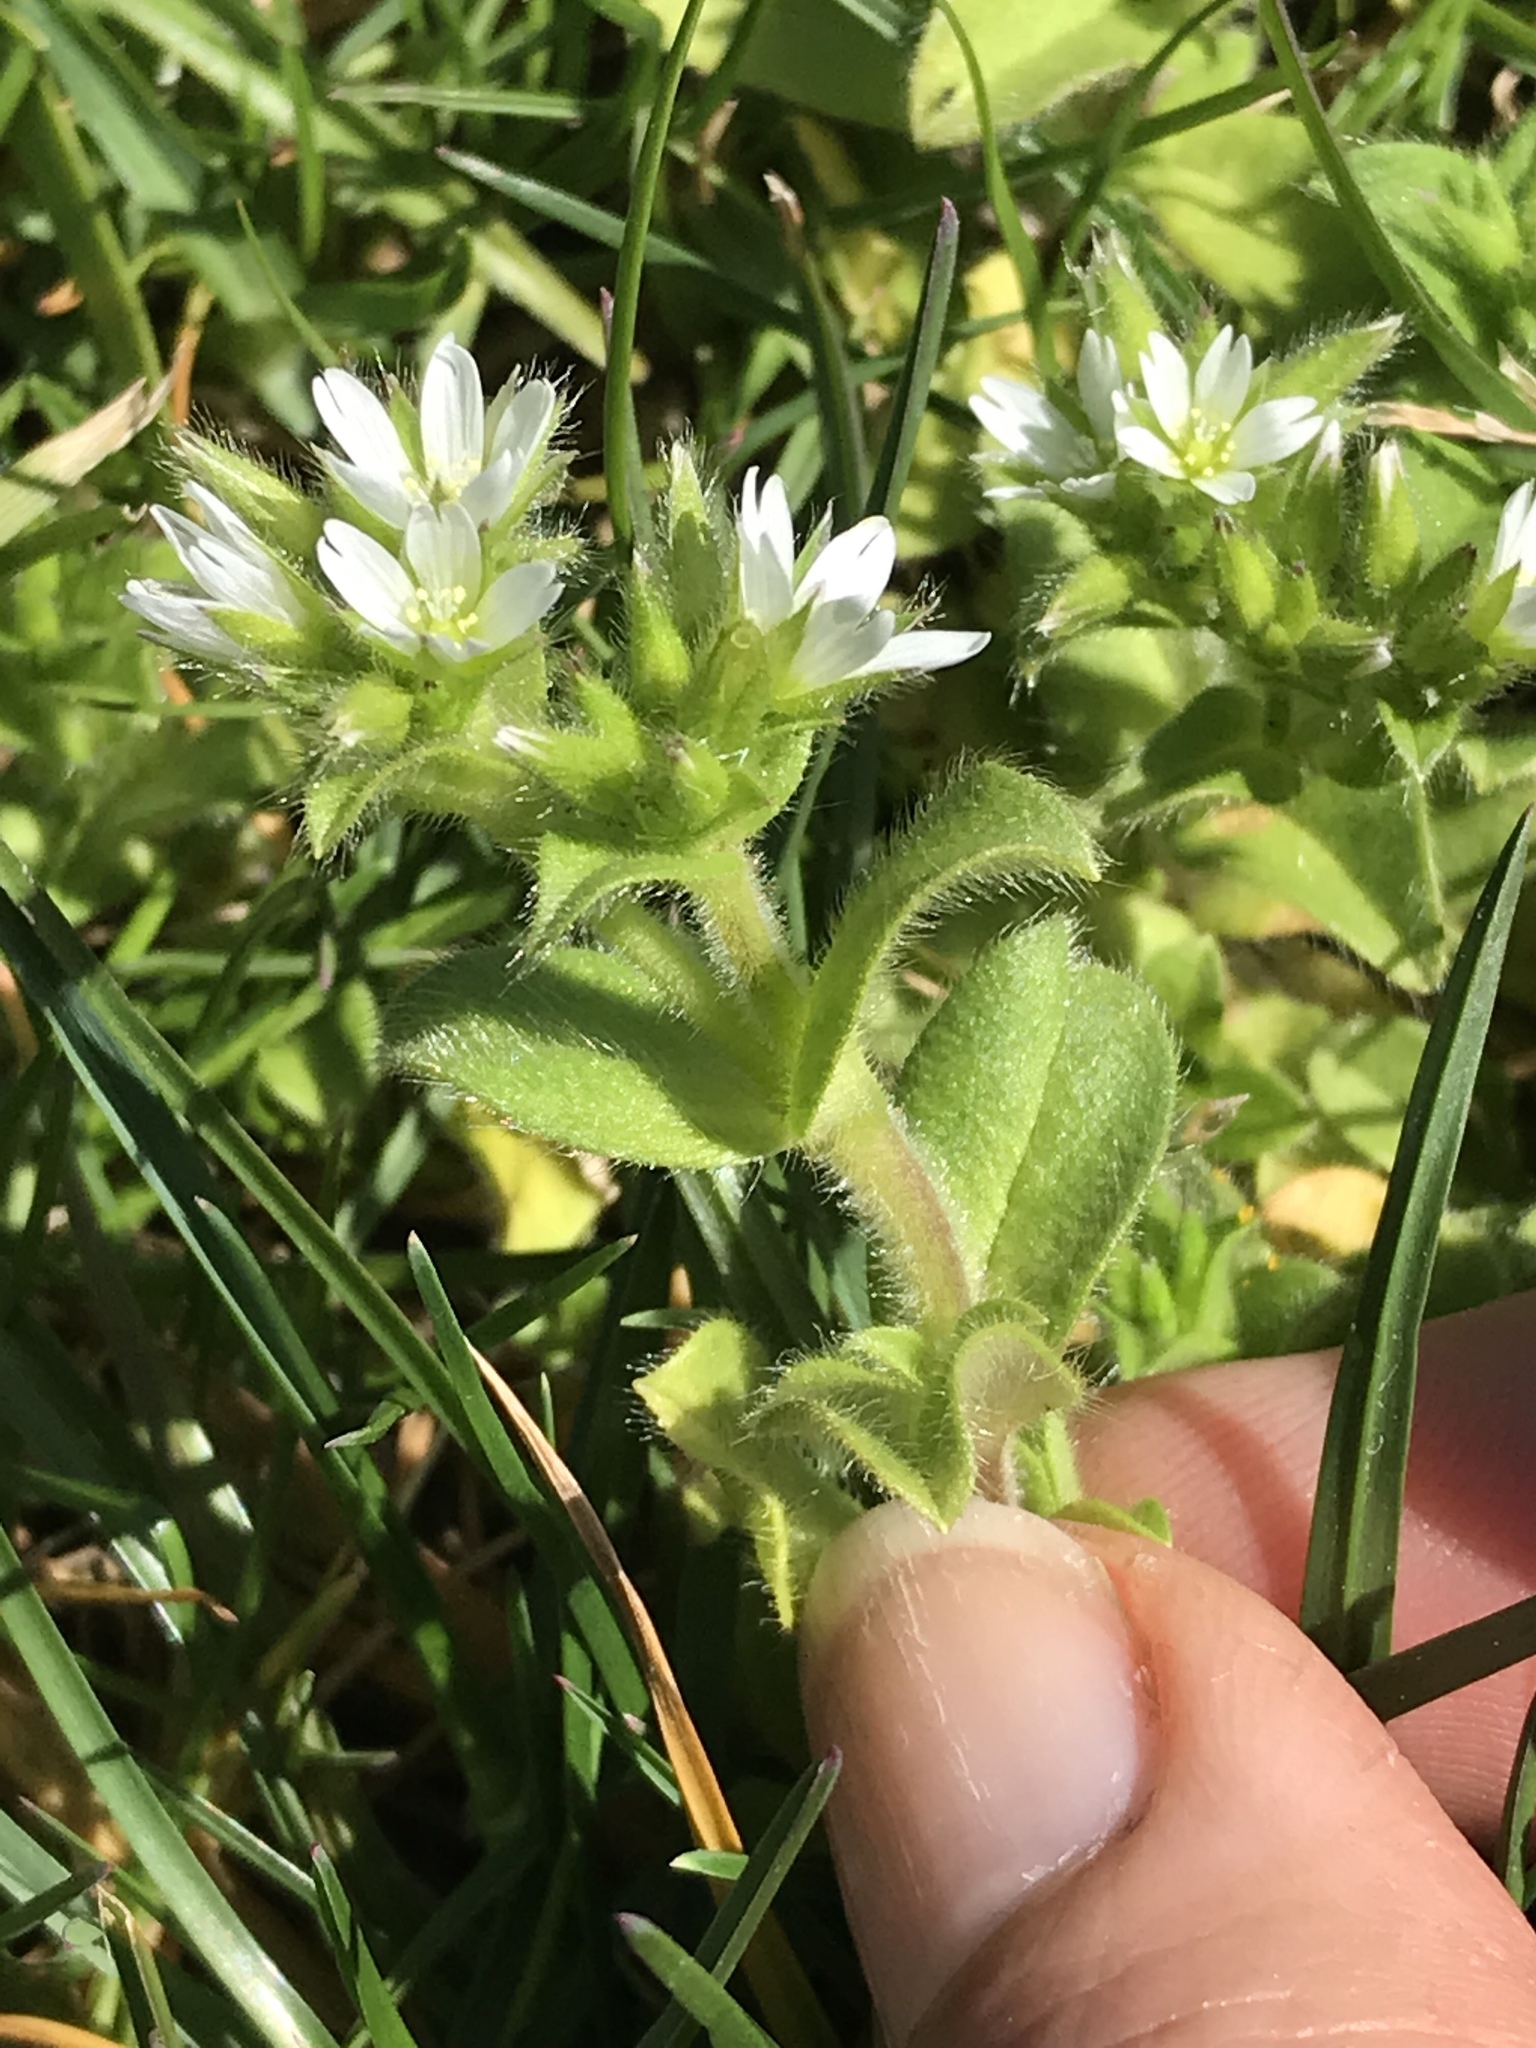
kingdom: Plantae
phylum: Tracheophyta
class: Magnoliopsida
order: Caryophyllales
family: Caryophyllaceae
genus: Cerastium
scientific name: Cerastium glomeratum
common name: Sticky chickweed
